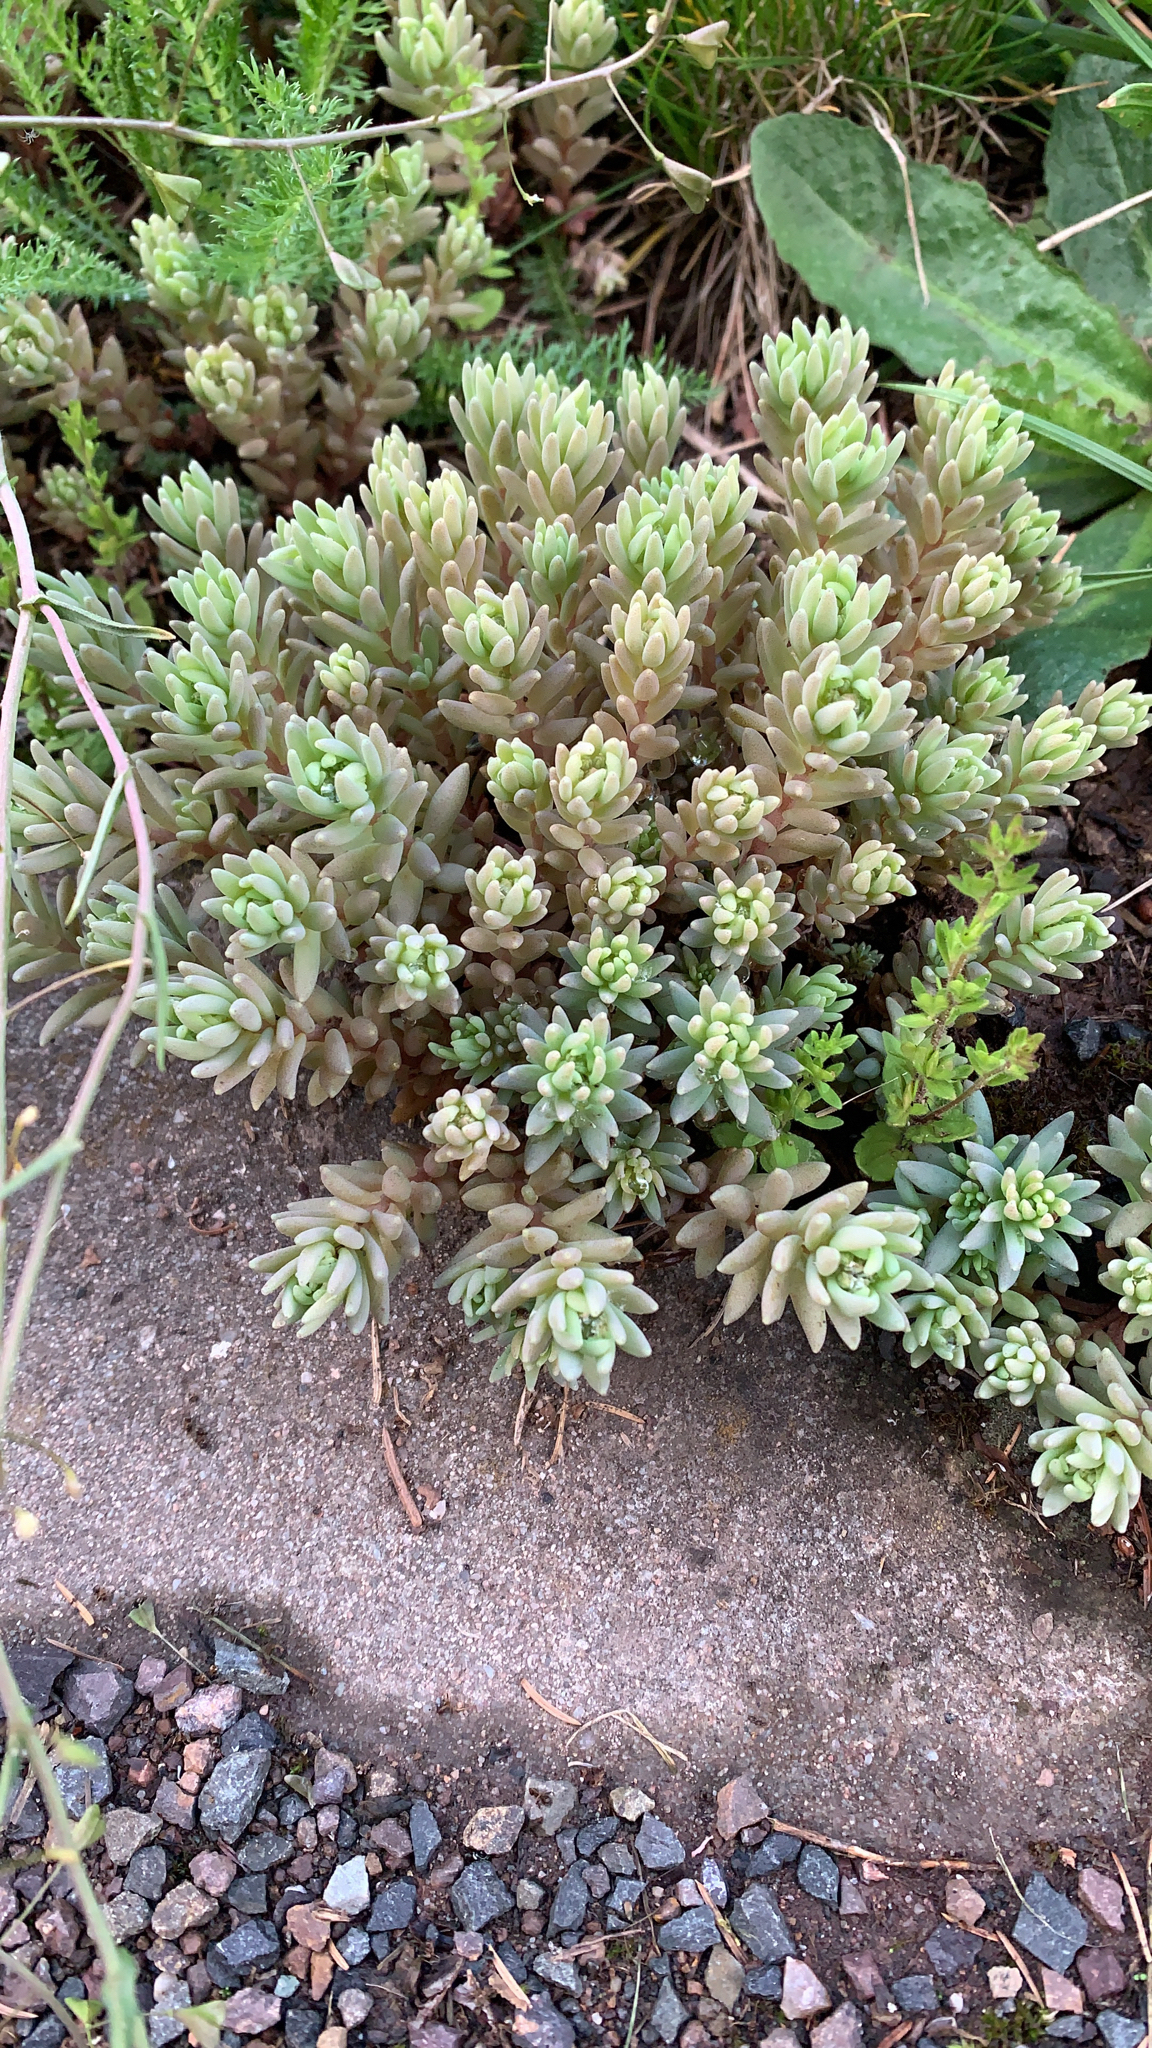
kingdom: Plantae
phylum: Tracheophyta
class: Magnoliopsida
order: Saxifragales
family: Crassulaceae
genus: Sedum
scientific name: Sedum hispanicum
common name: Spanish stonecrop
